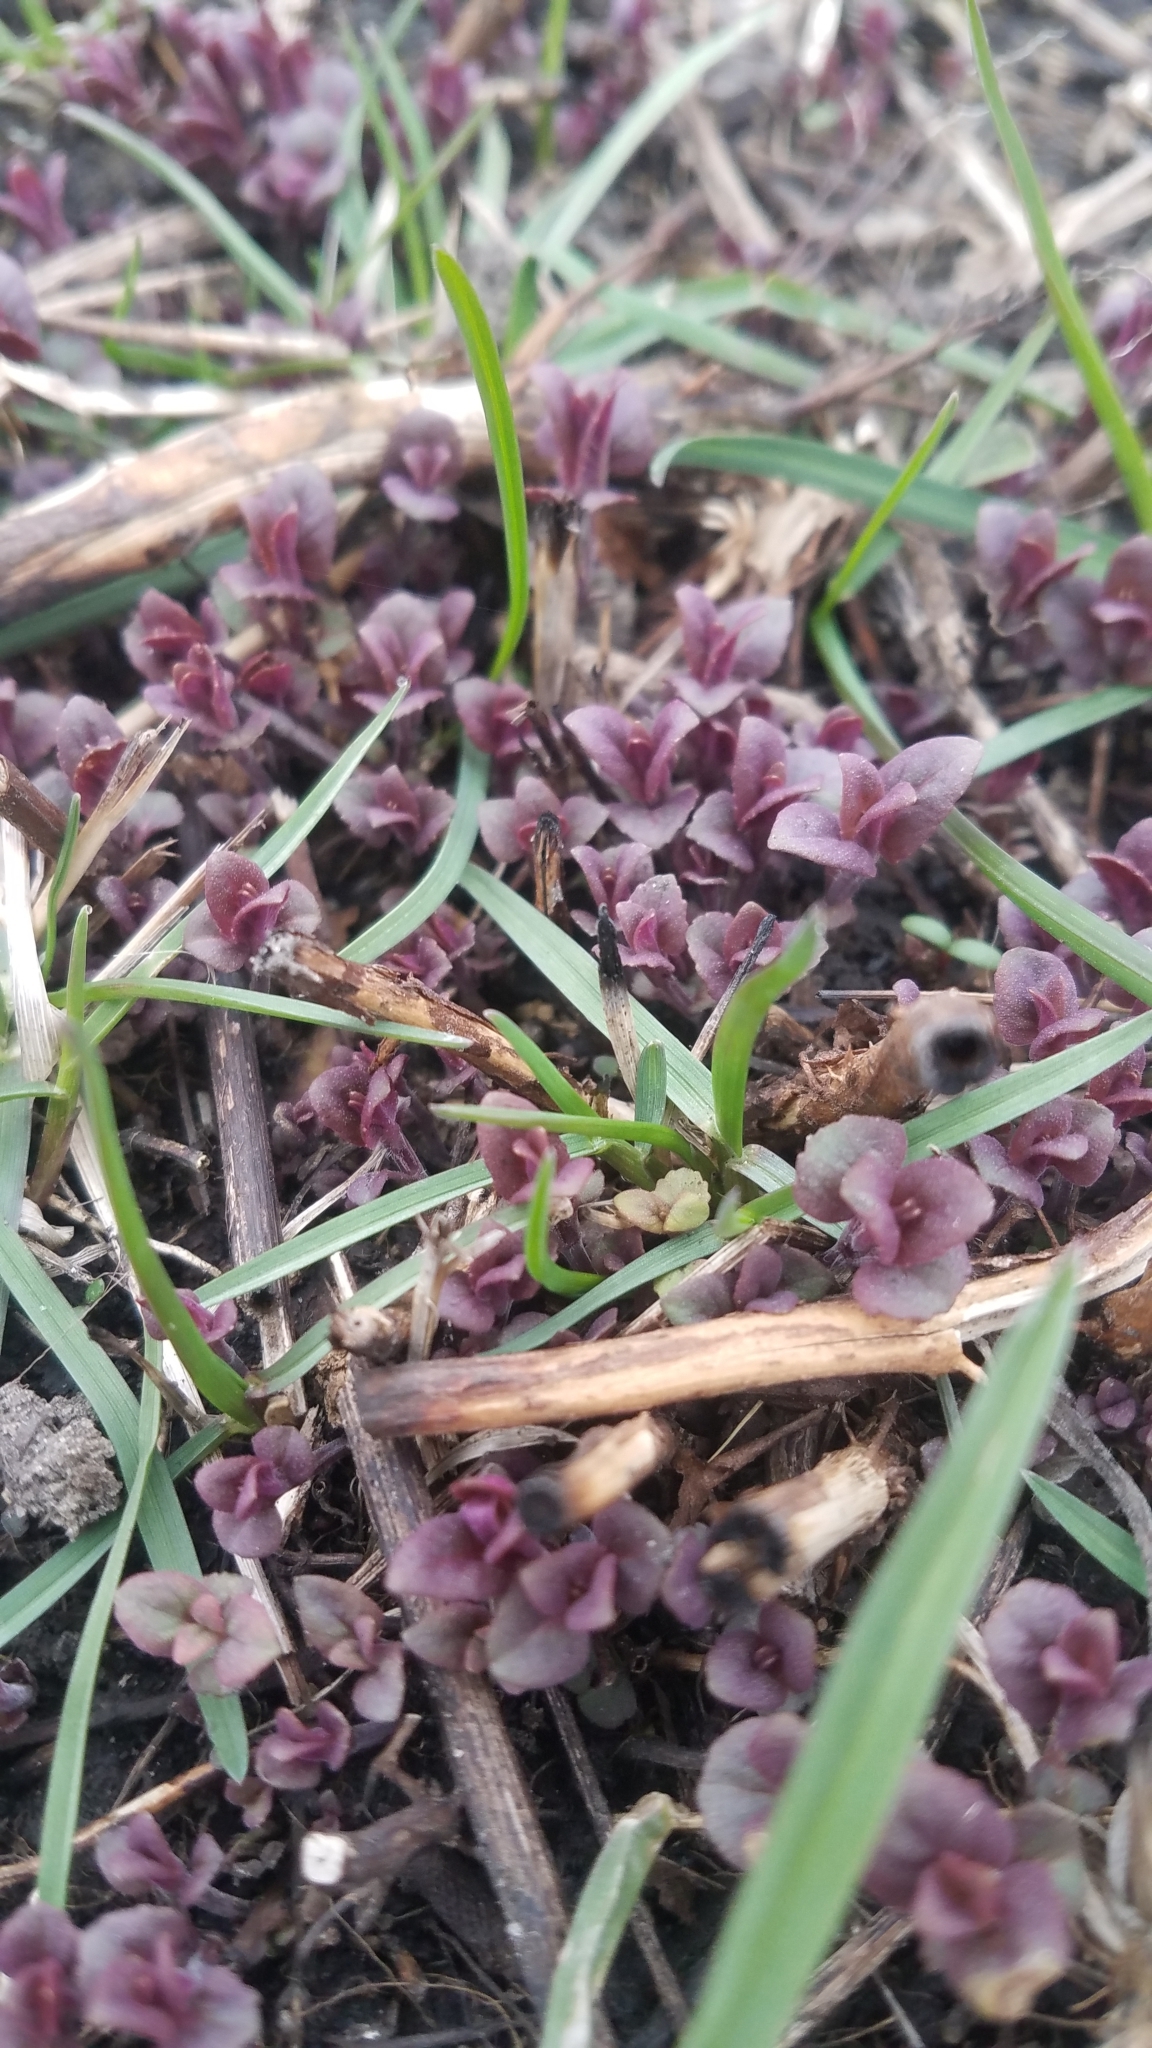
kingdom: Plantae
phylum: Tracheophyta
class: Magnoliopsida
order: Lamiales
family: Lamiaceae
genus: Monarda
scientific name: Monarda fistulosa
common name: Purple beebalm
